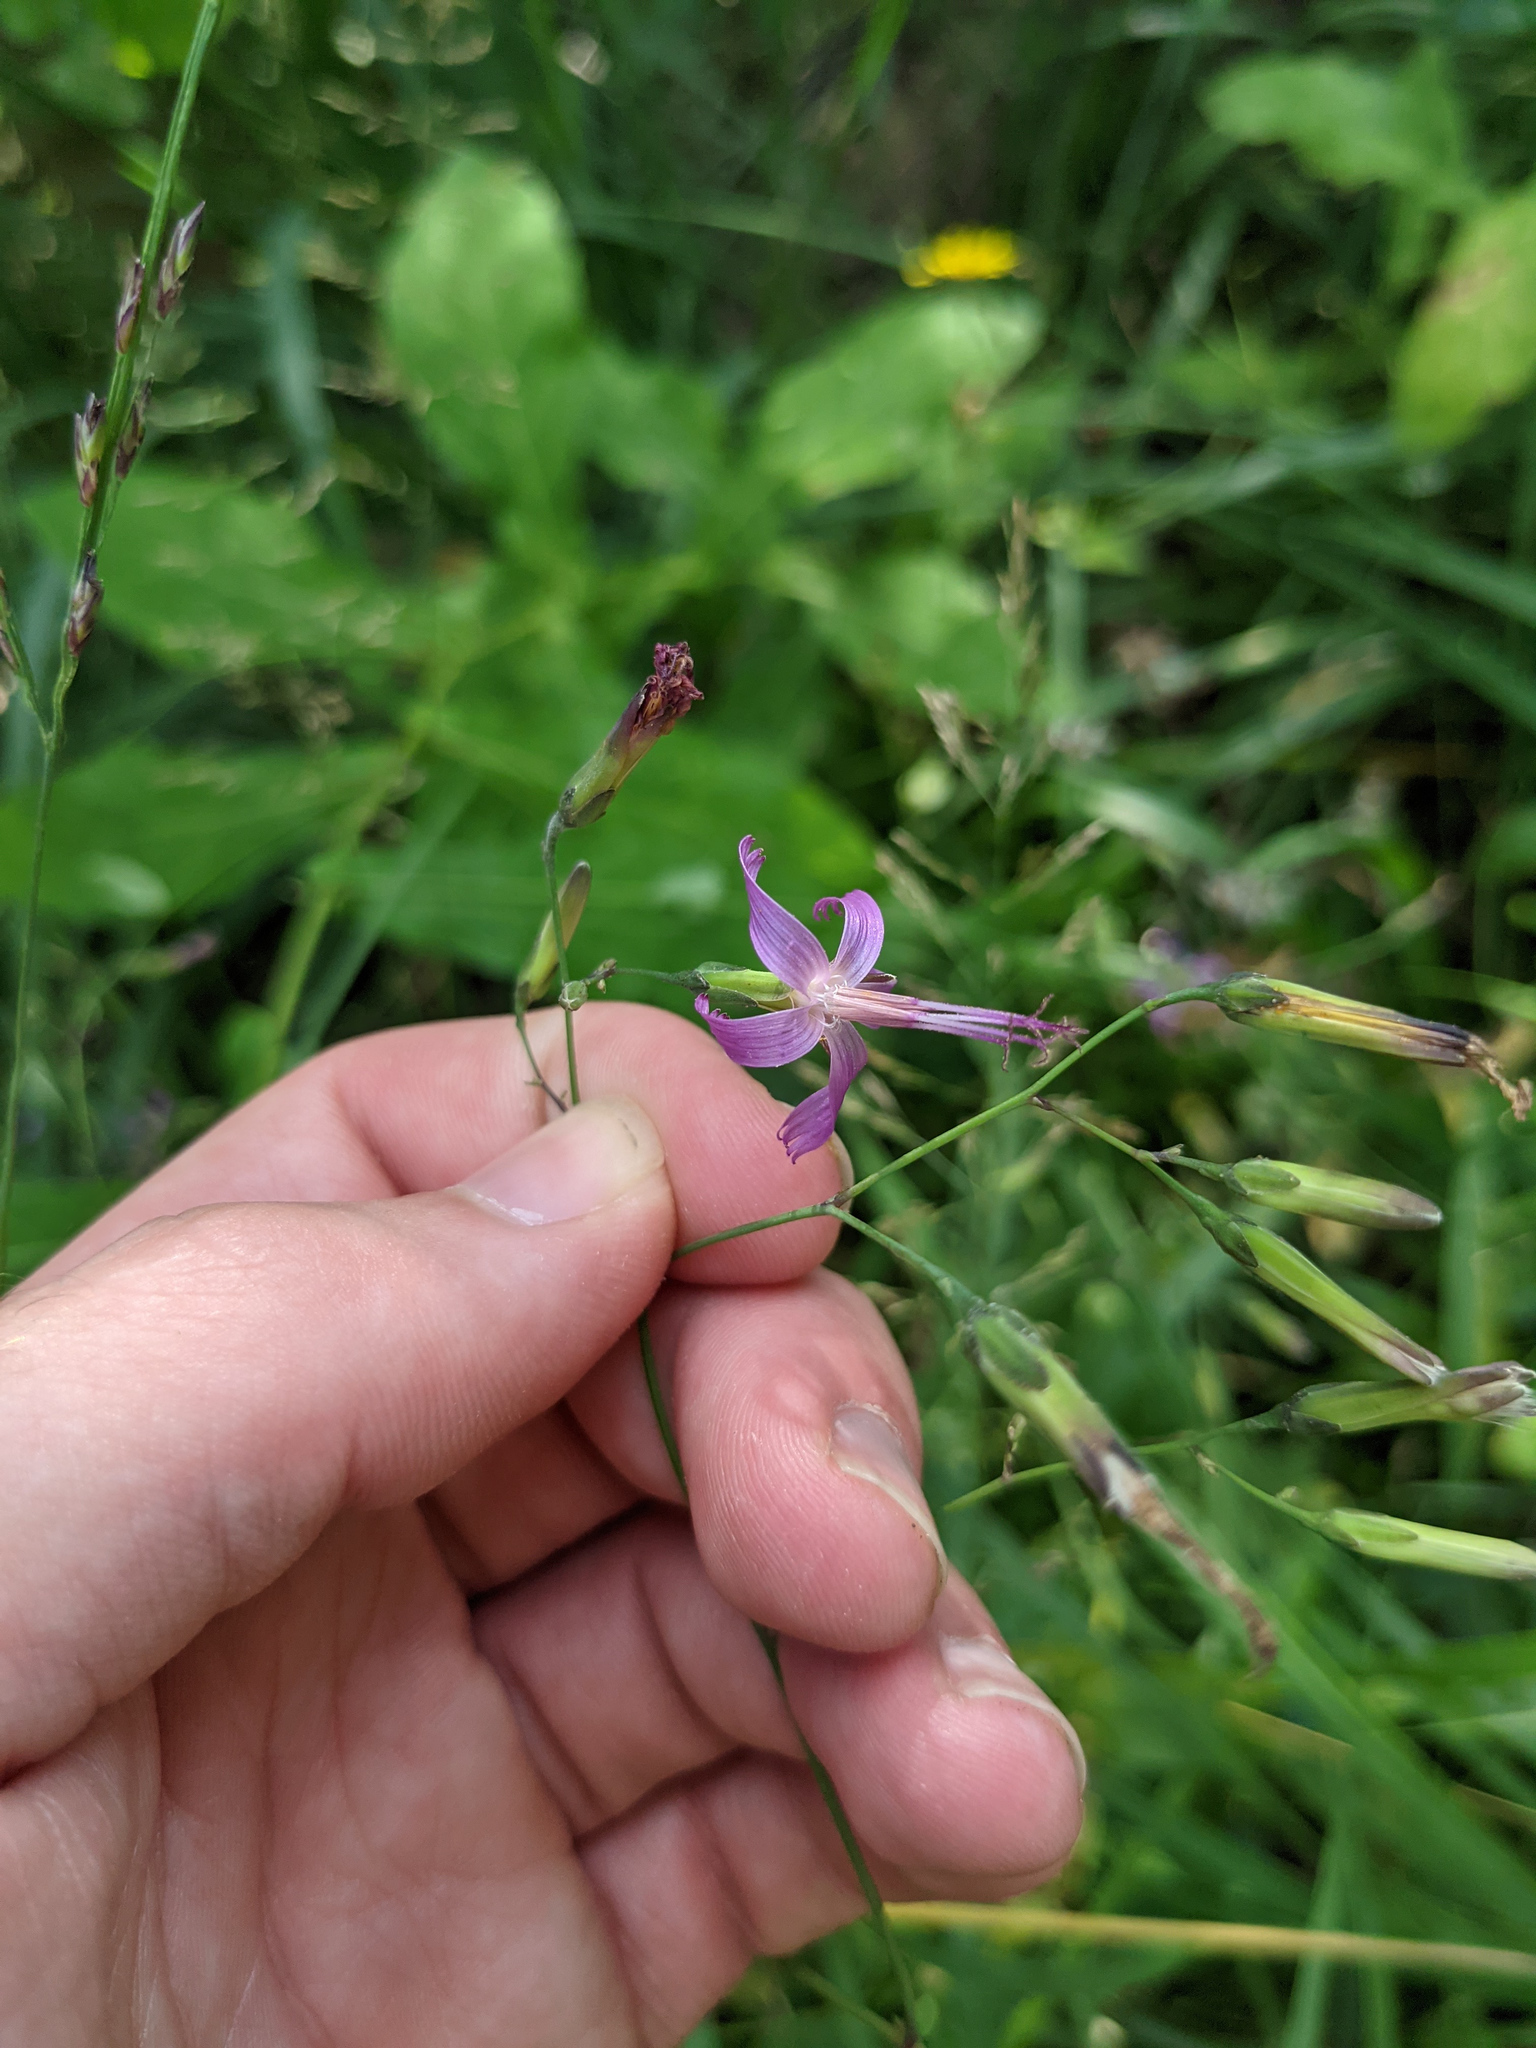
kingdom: Plantae
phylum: Tracheophyta
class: Magnoliopsida
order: Asterales
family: Asteraceae
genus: Prenanthes
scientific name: Prenanthes purpurea
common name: Purple lettuce
